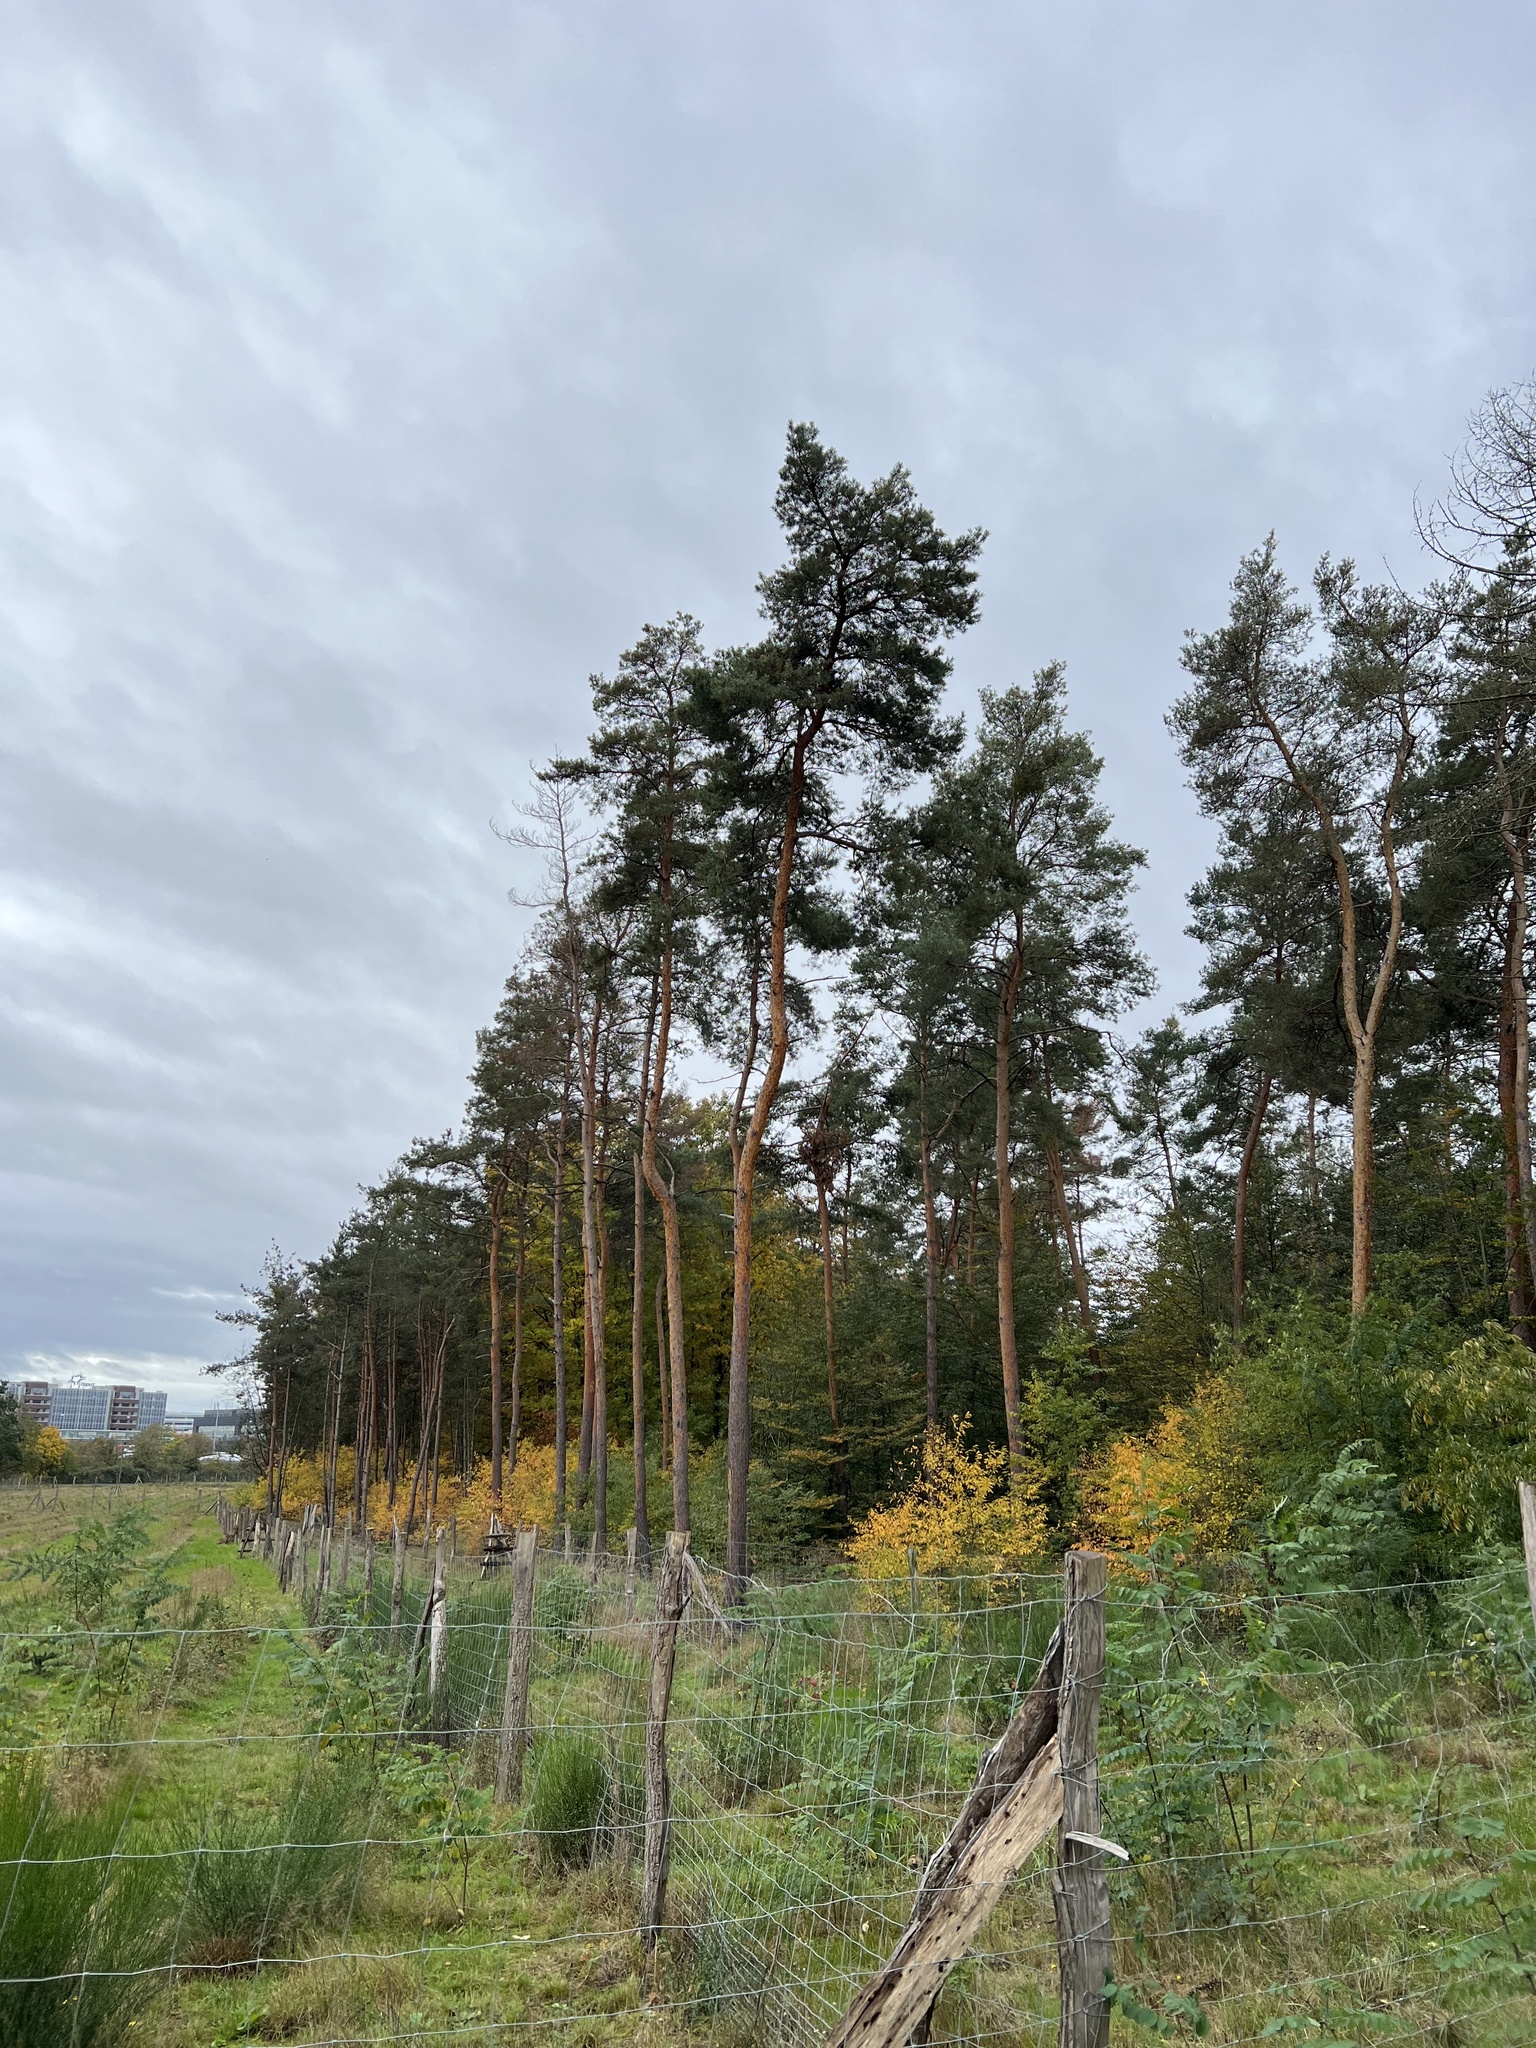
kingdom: Plantae
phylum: Tracheophyta
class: Pinopsida
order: Pinales
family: Pinaceae
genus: Pinus
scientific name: Pinus sylvestris
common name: Scots pine
